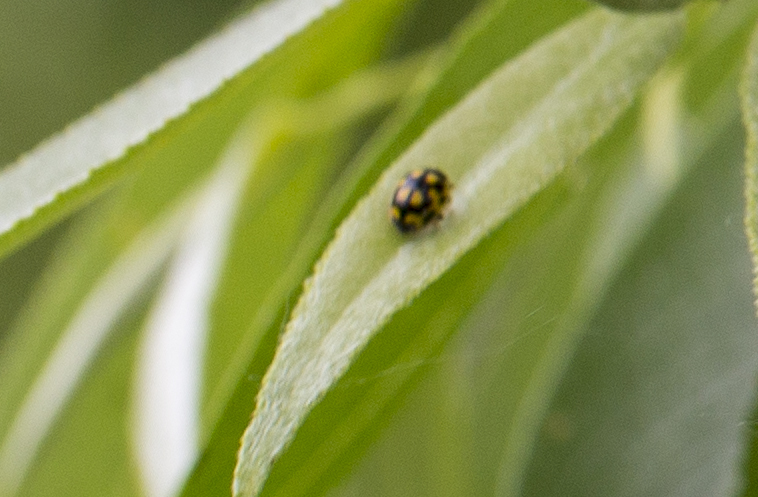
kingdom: Animalia
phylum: Arthropoda
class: Insecta
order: Coleoptera
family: Coccinellidae
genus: Propylaea
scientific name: Propylaea quatuordecimpunctata
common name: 14-spotted ladybird beetle
